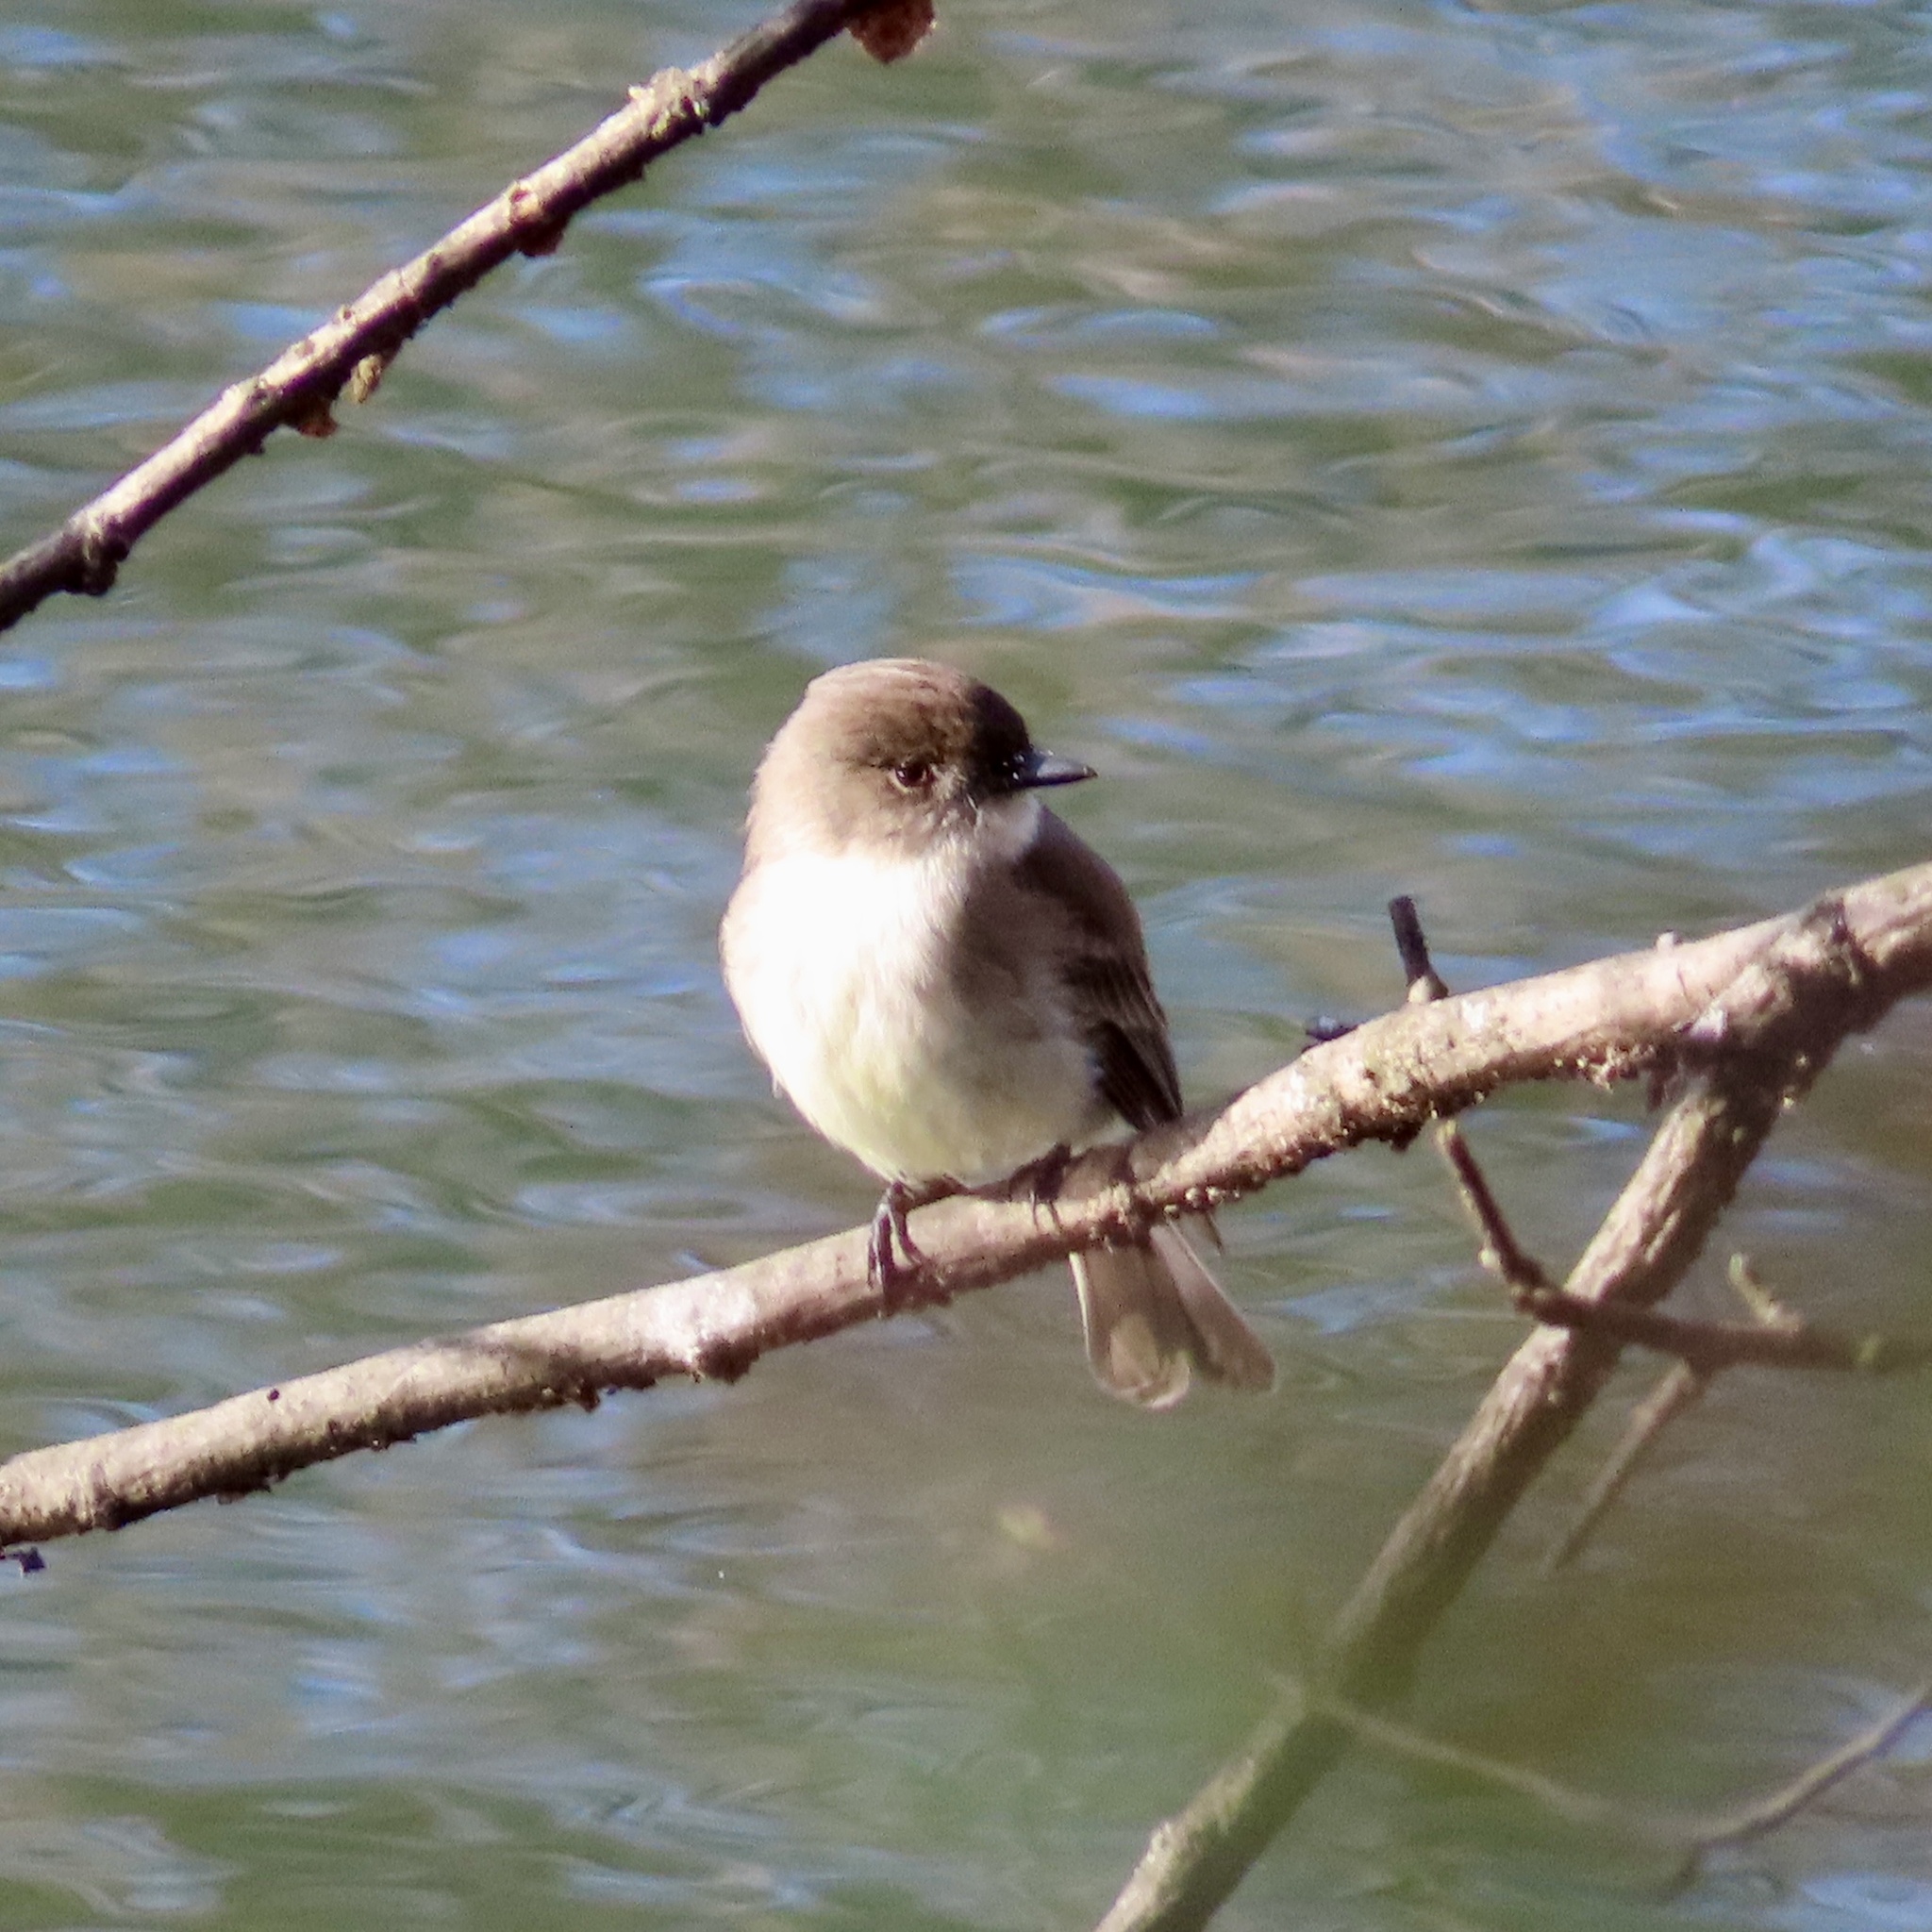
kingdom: Animalia
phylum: Chordata
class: Aves
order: Passeriformes
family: Tyrannidae
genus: Sayornis
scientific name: Sayornis phoebe
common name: Eastern phoebe
